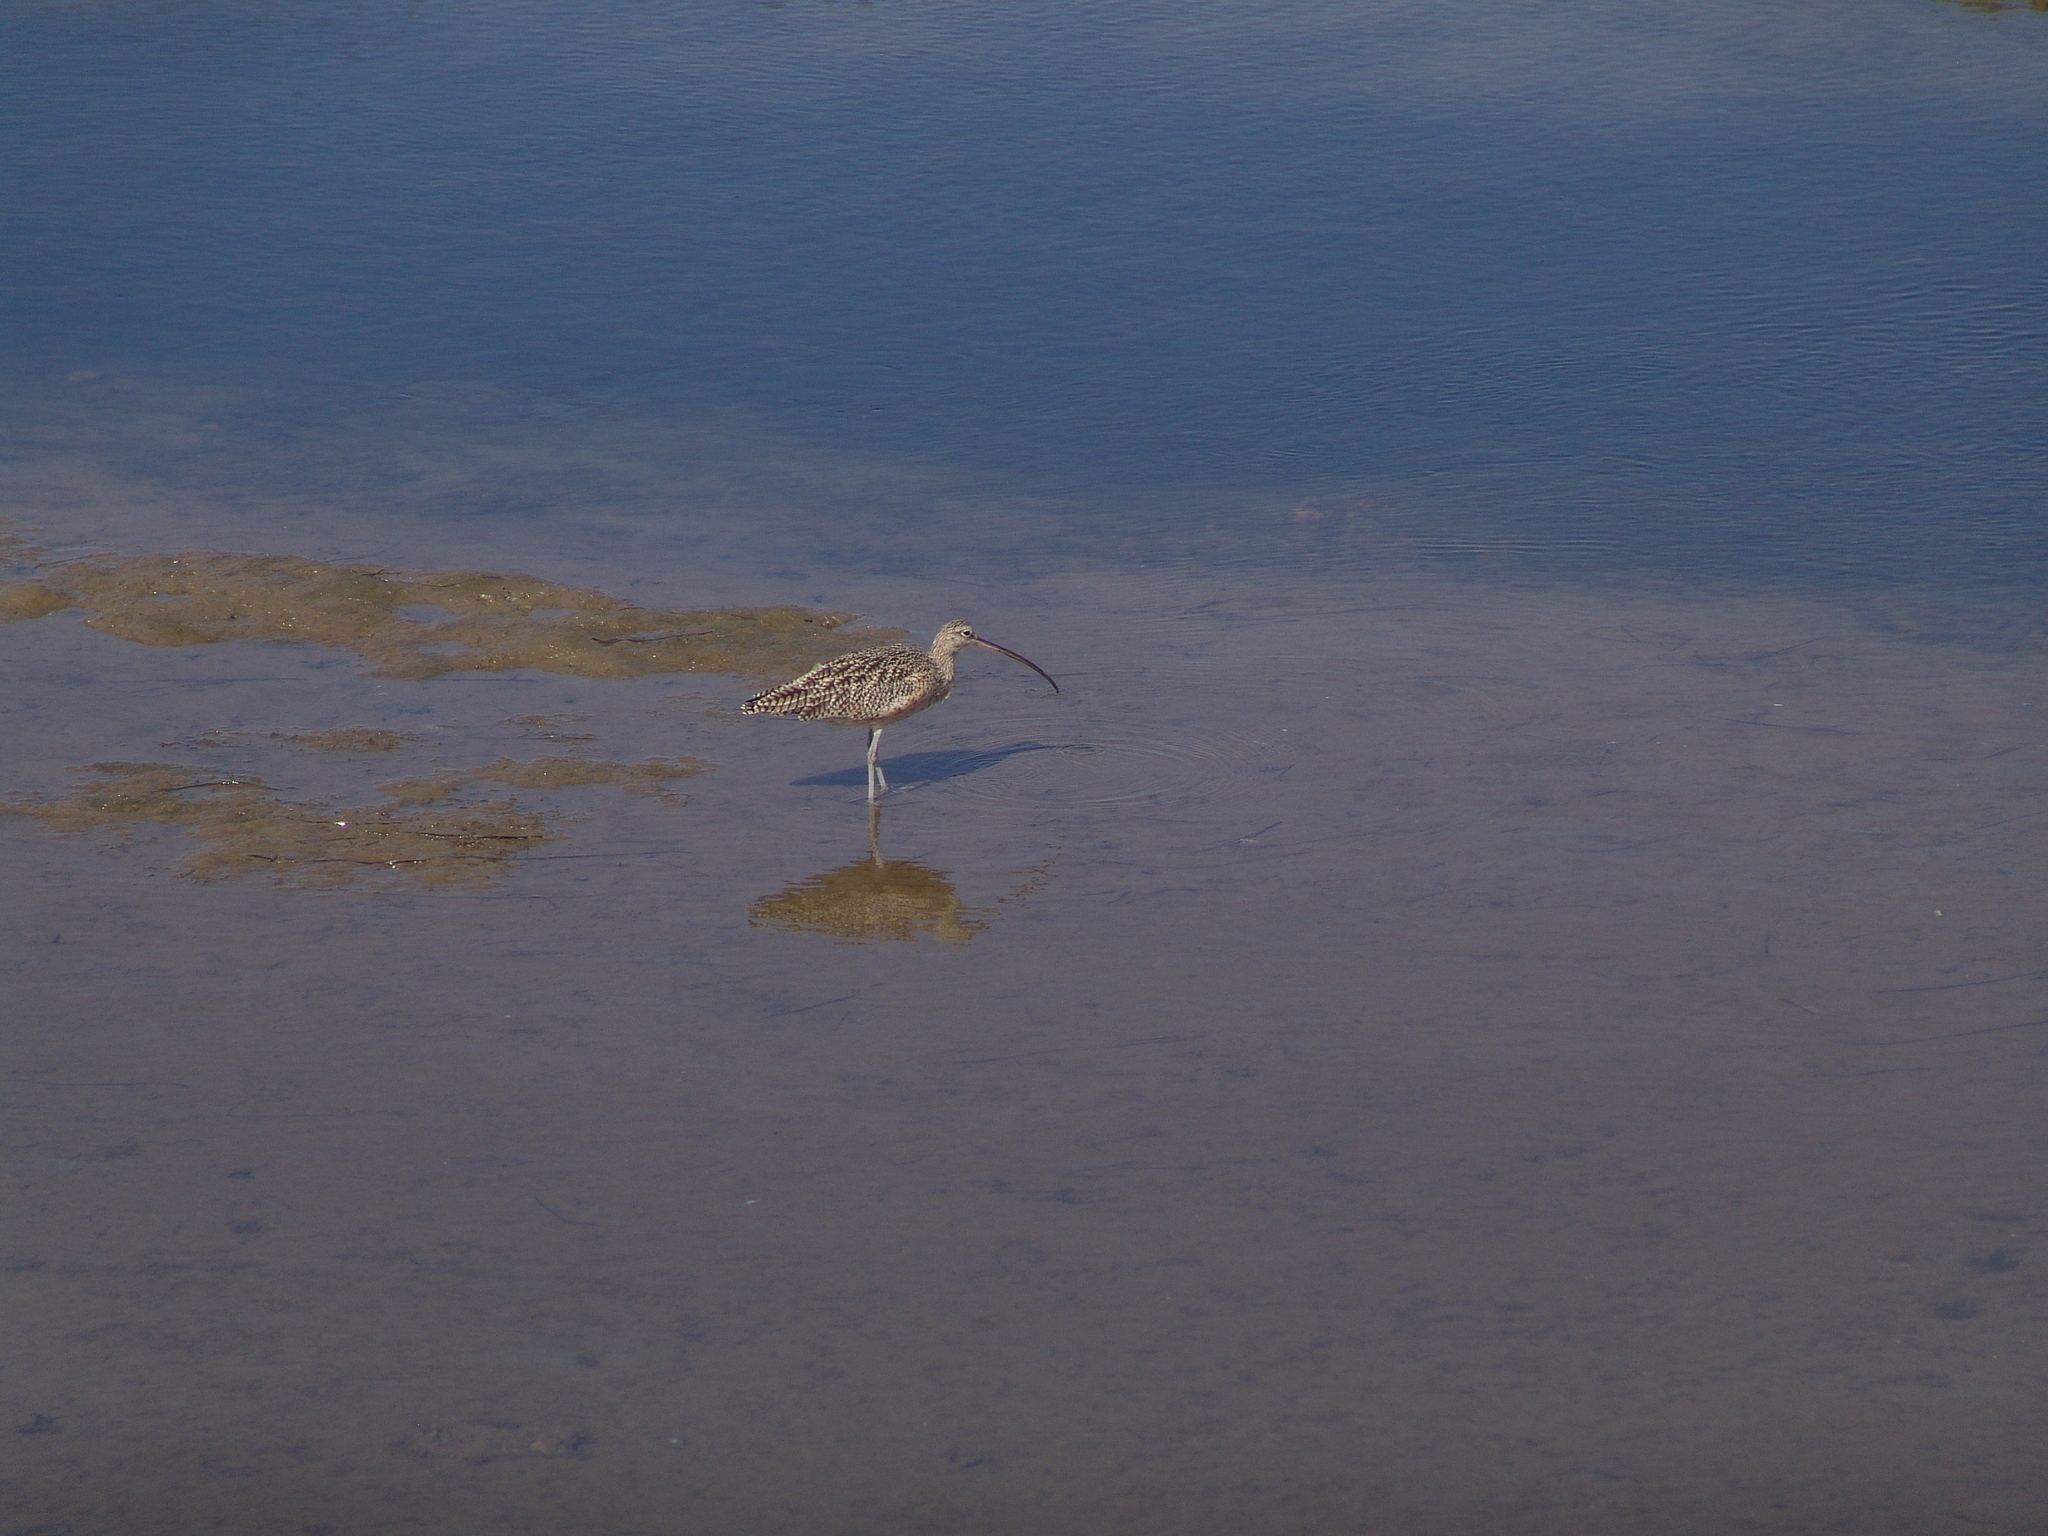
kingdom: Animalia
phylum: Chordata
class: Aves
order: Charadriiformes
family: Scolopacidae
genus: Numenius
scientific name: Numenius americanus
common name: Long-billed curlew
